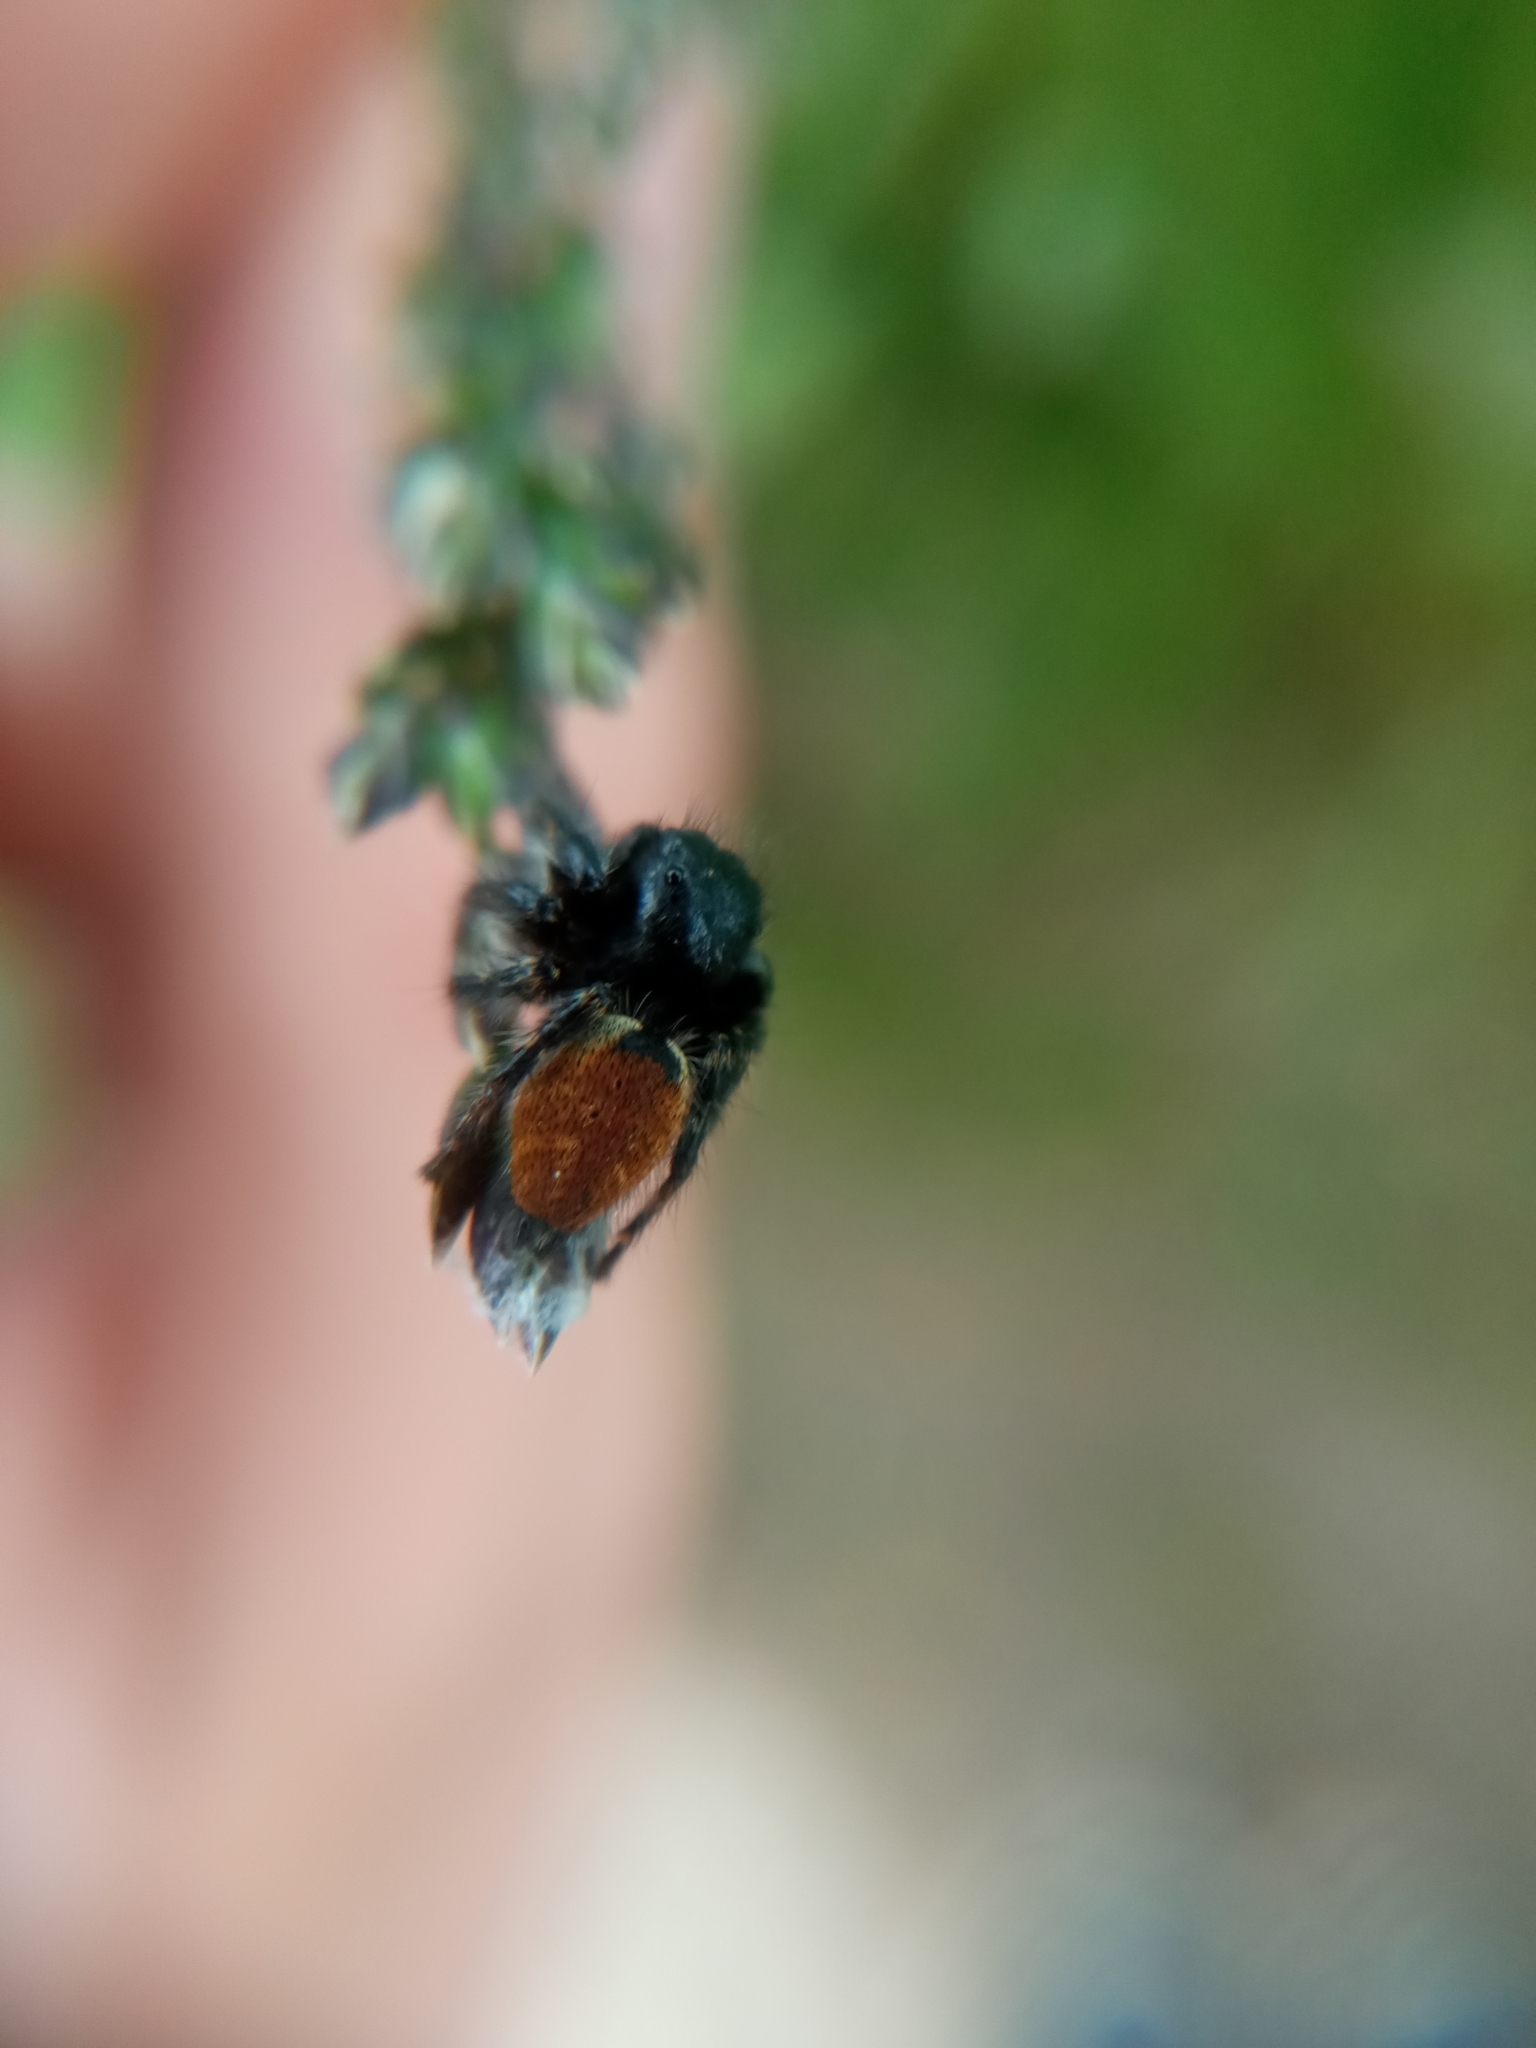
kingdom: Animalia
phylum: Arthropoda
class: Arachnida
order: Araneae
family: Salticidae
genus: Carrhotus
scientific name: Carrhotus xanthogramma
